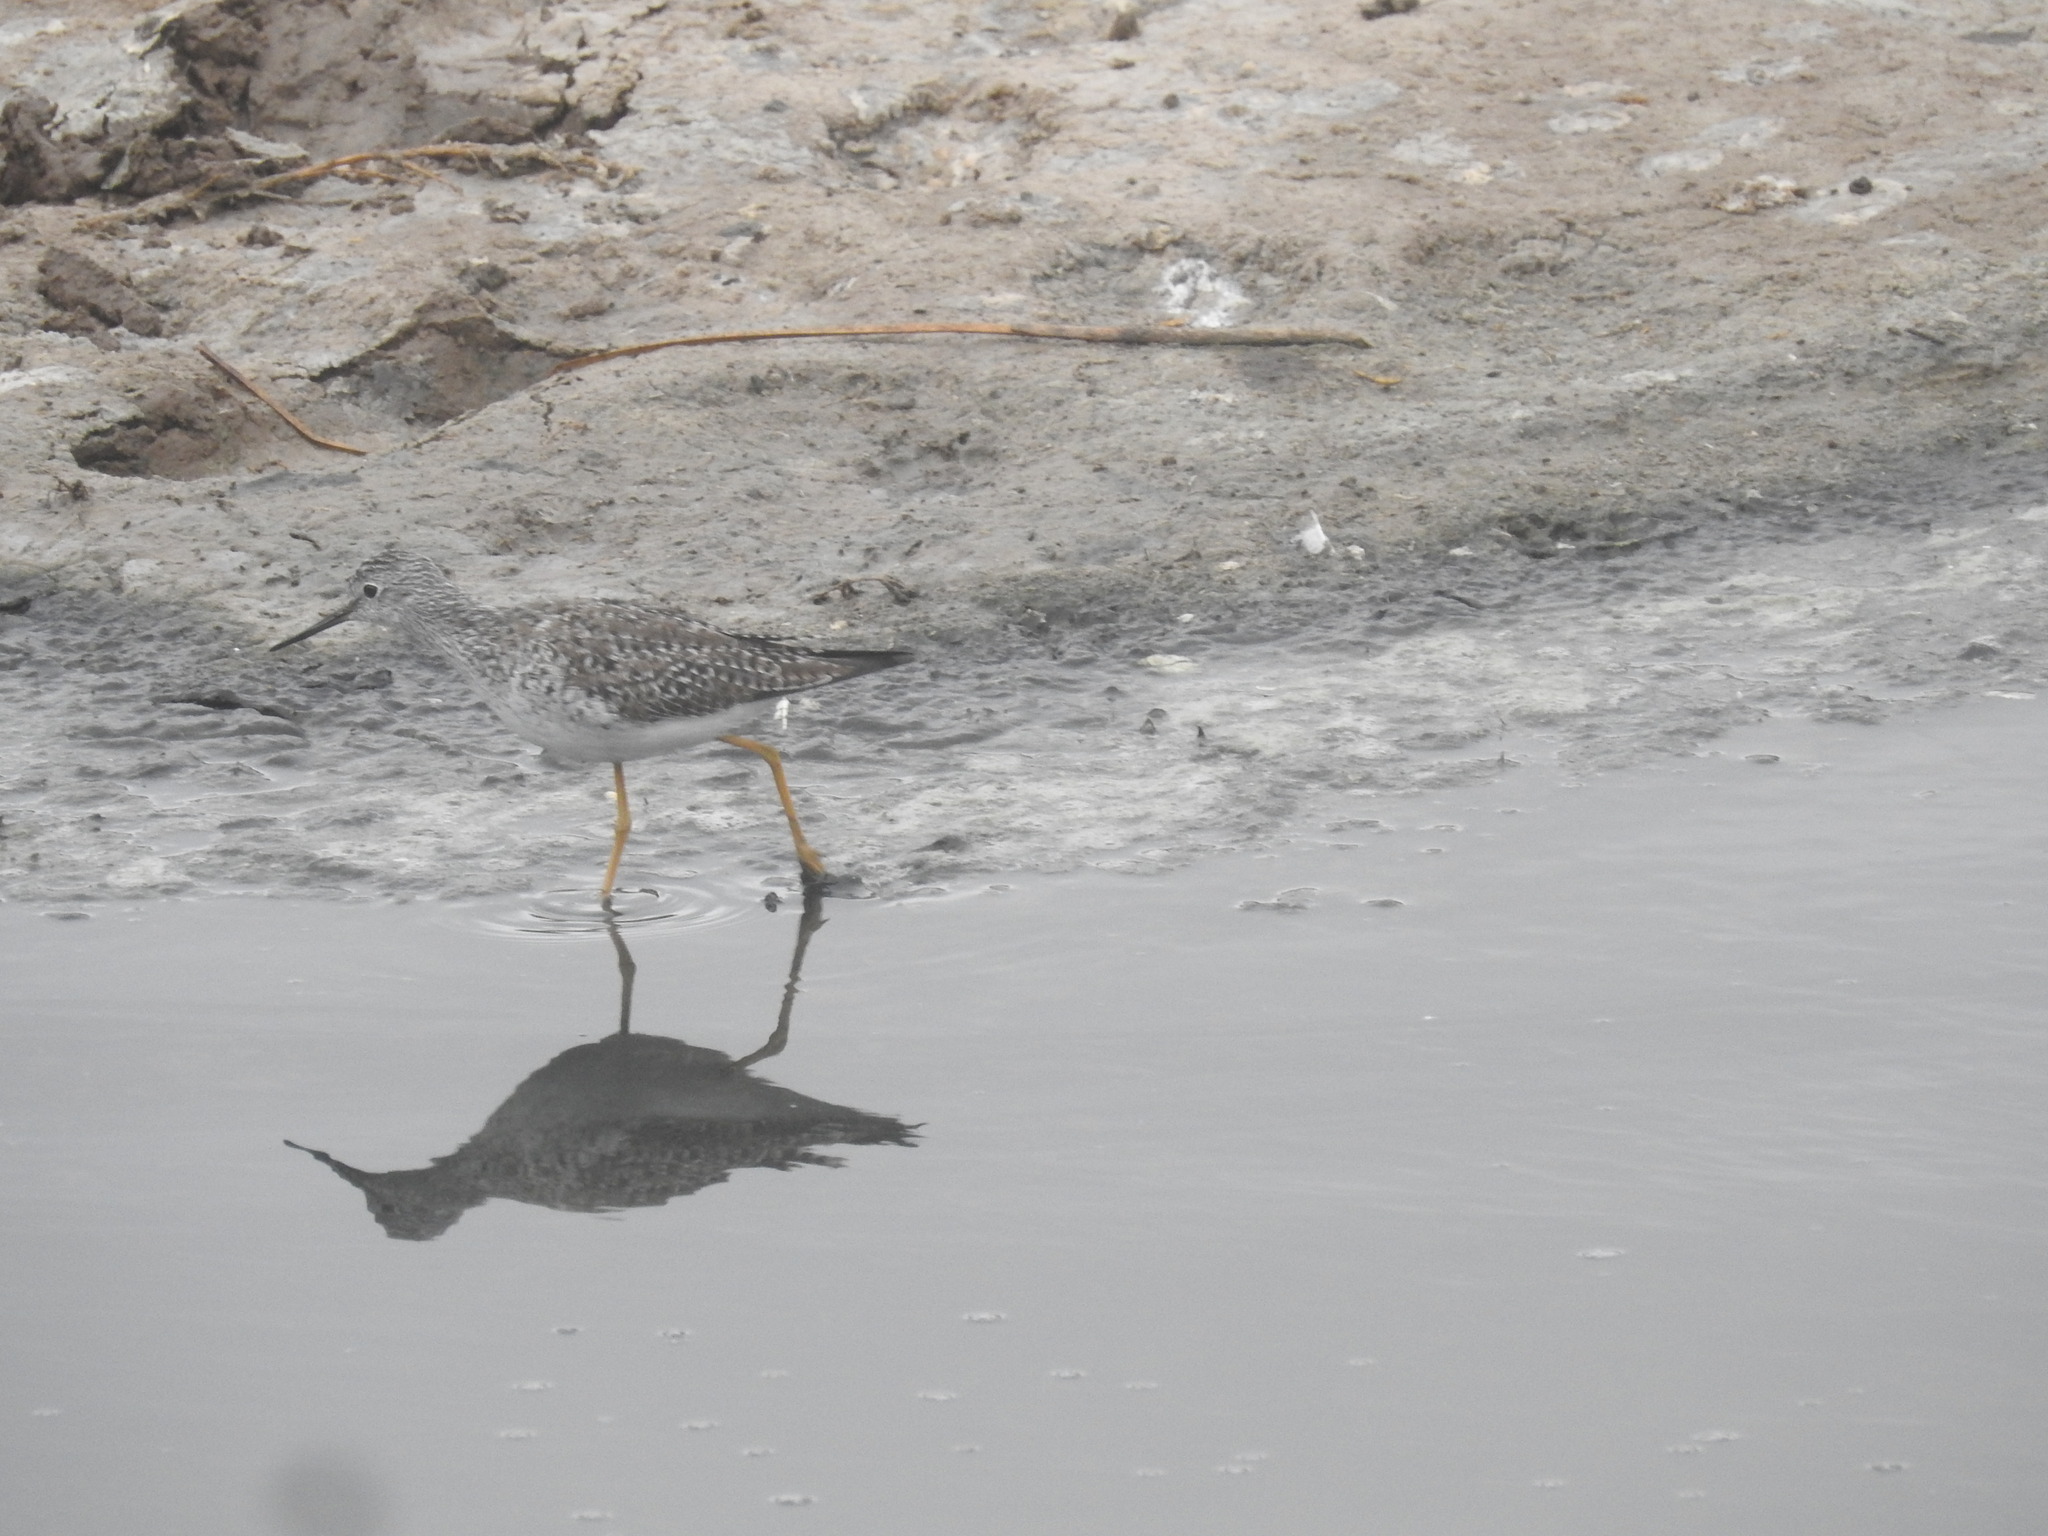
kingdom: Animalia
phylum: Chordata
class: Aves
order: Charadriiformes
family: Scolopacidae
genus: Tringa
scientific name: Tringa flavipes
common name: Lesser yellowlegs
